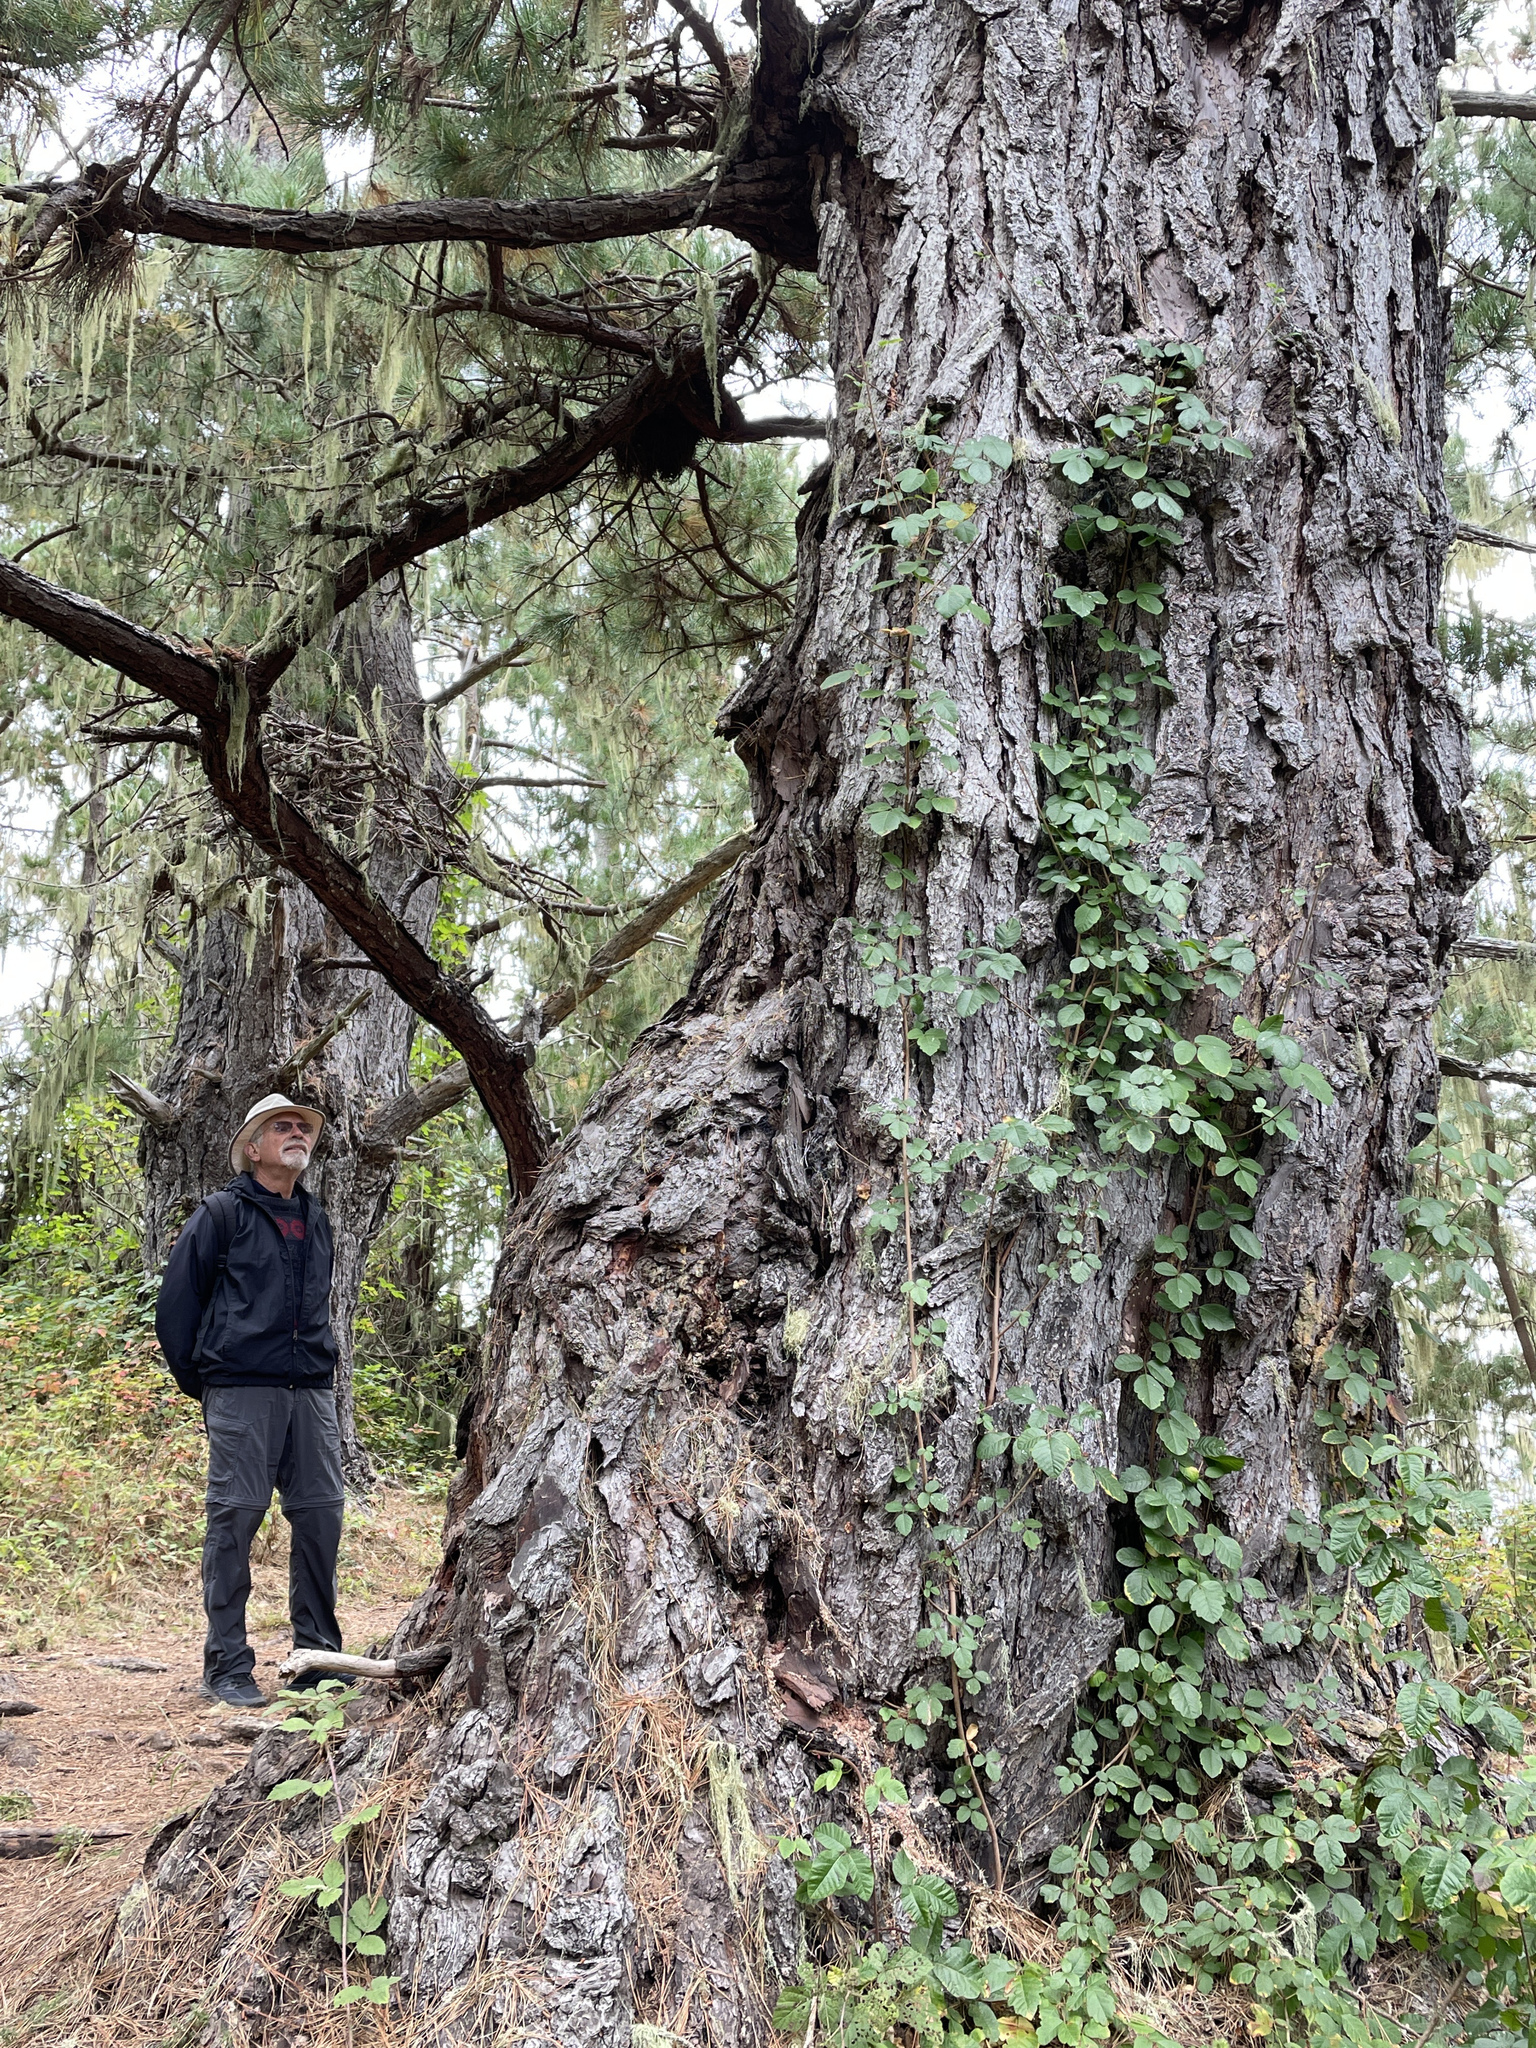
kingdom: Plantae
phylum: Tracheophyta
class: Pinopsida
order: Pinales
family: Pinaceae
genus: Pinus
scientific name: Pinus radiata
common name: Monterey pine
